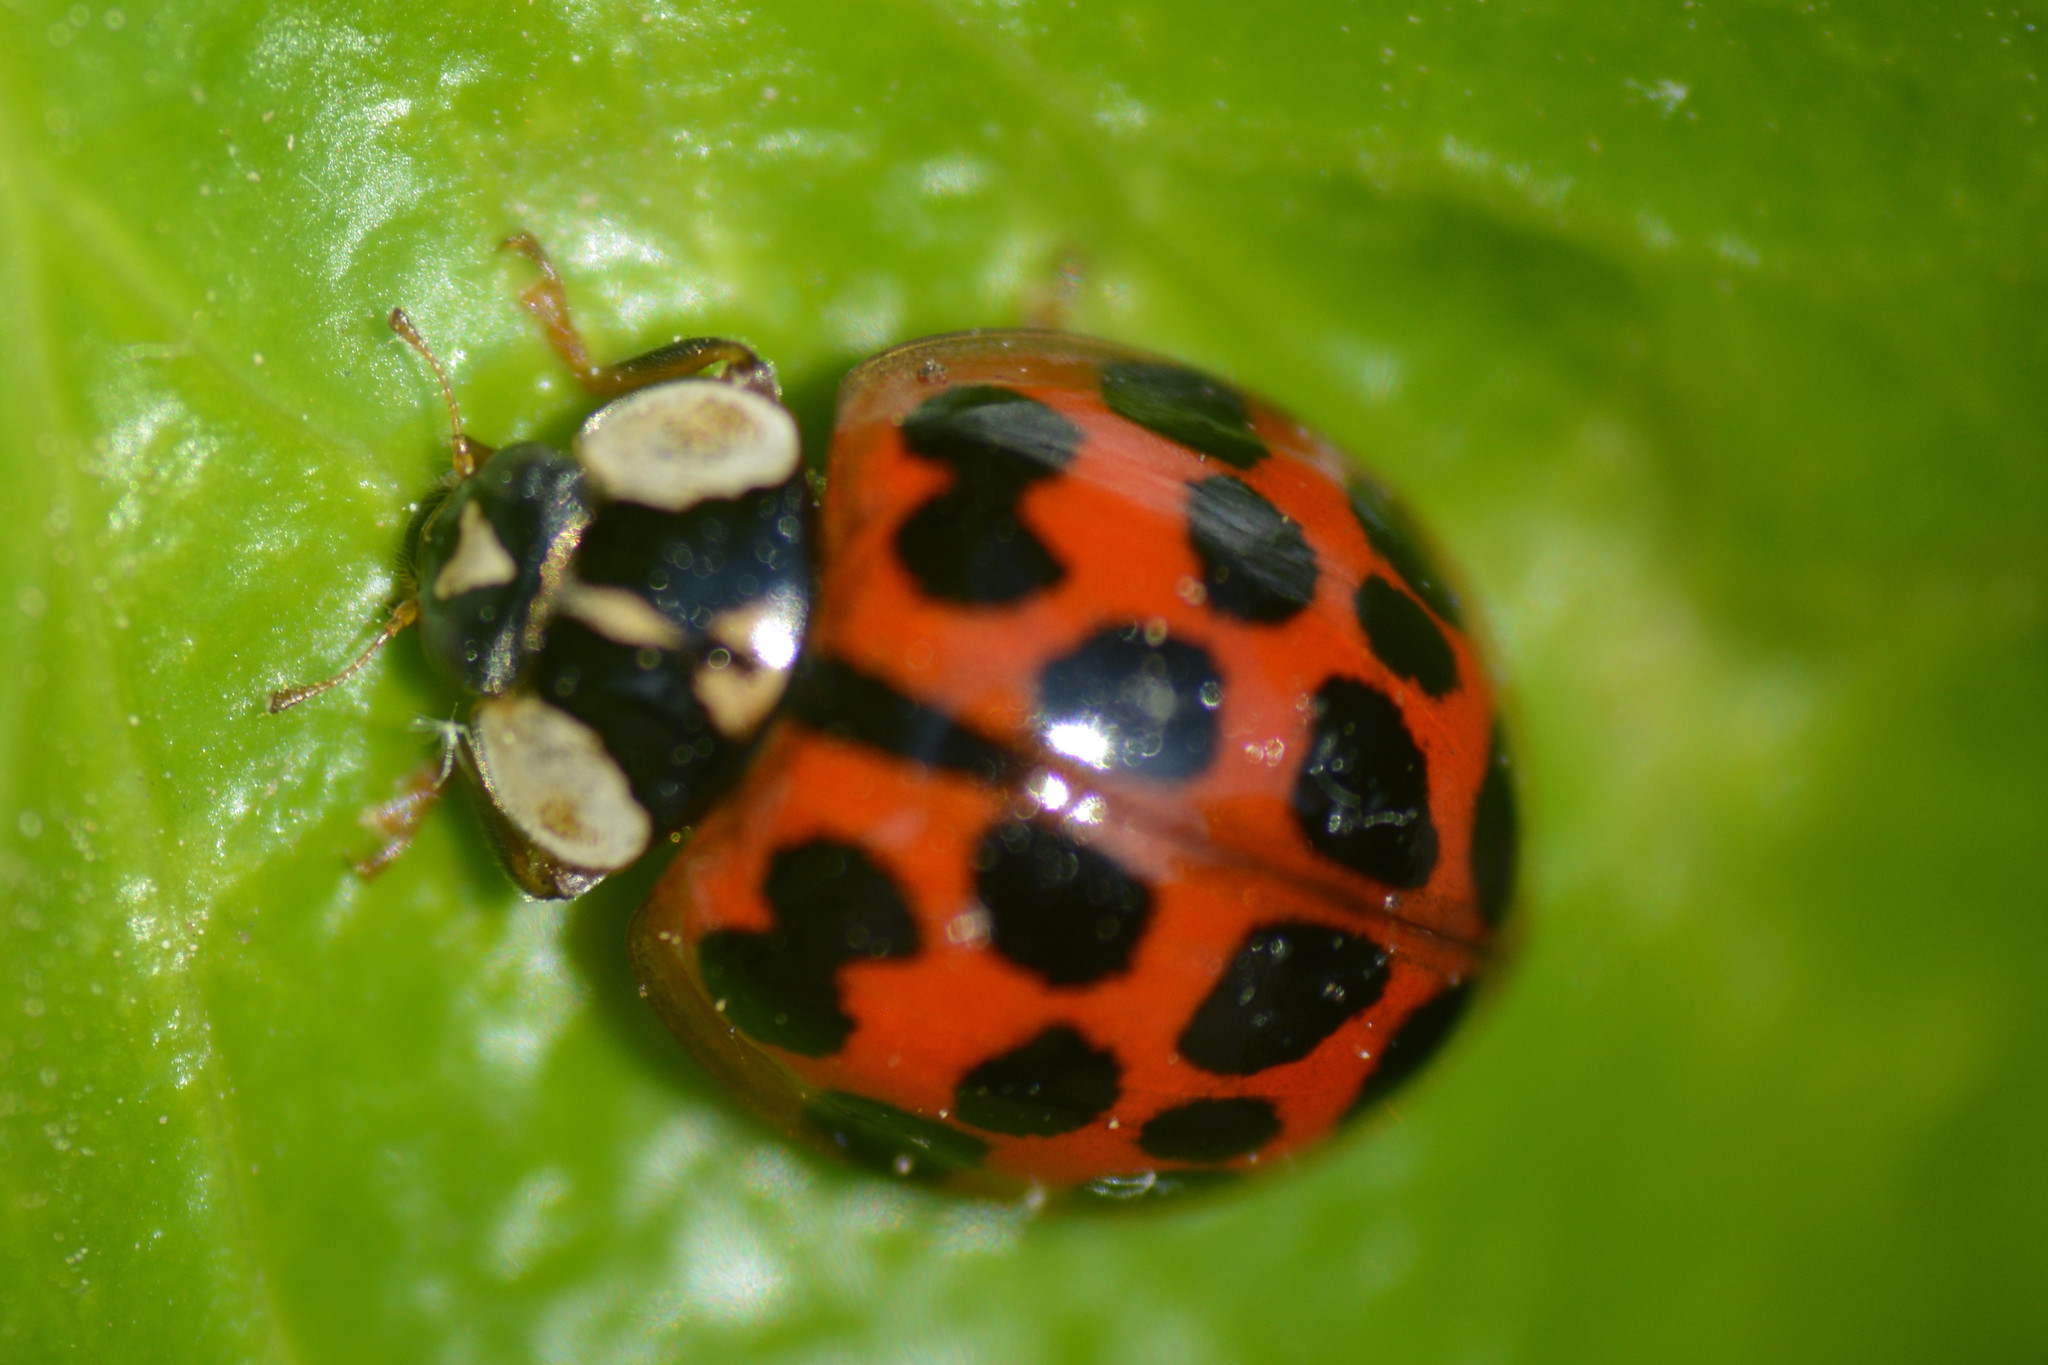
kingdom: Animalia
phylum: Arthropoda
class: Insecta
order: Coleoptera
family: Coccinellidae
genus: Harmonia
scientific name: Harmonia axyridis
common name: Harlequin ladybird
